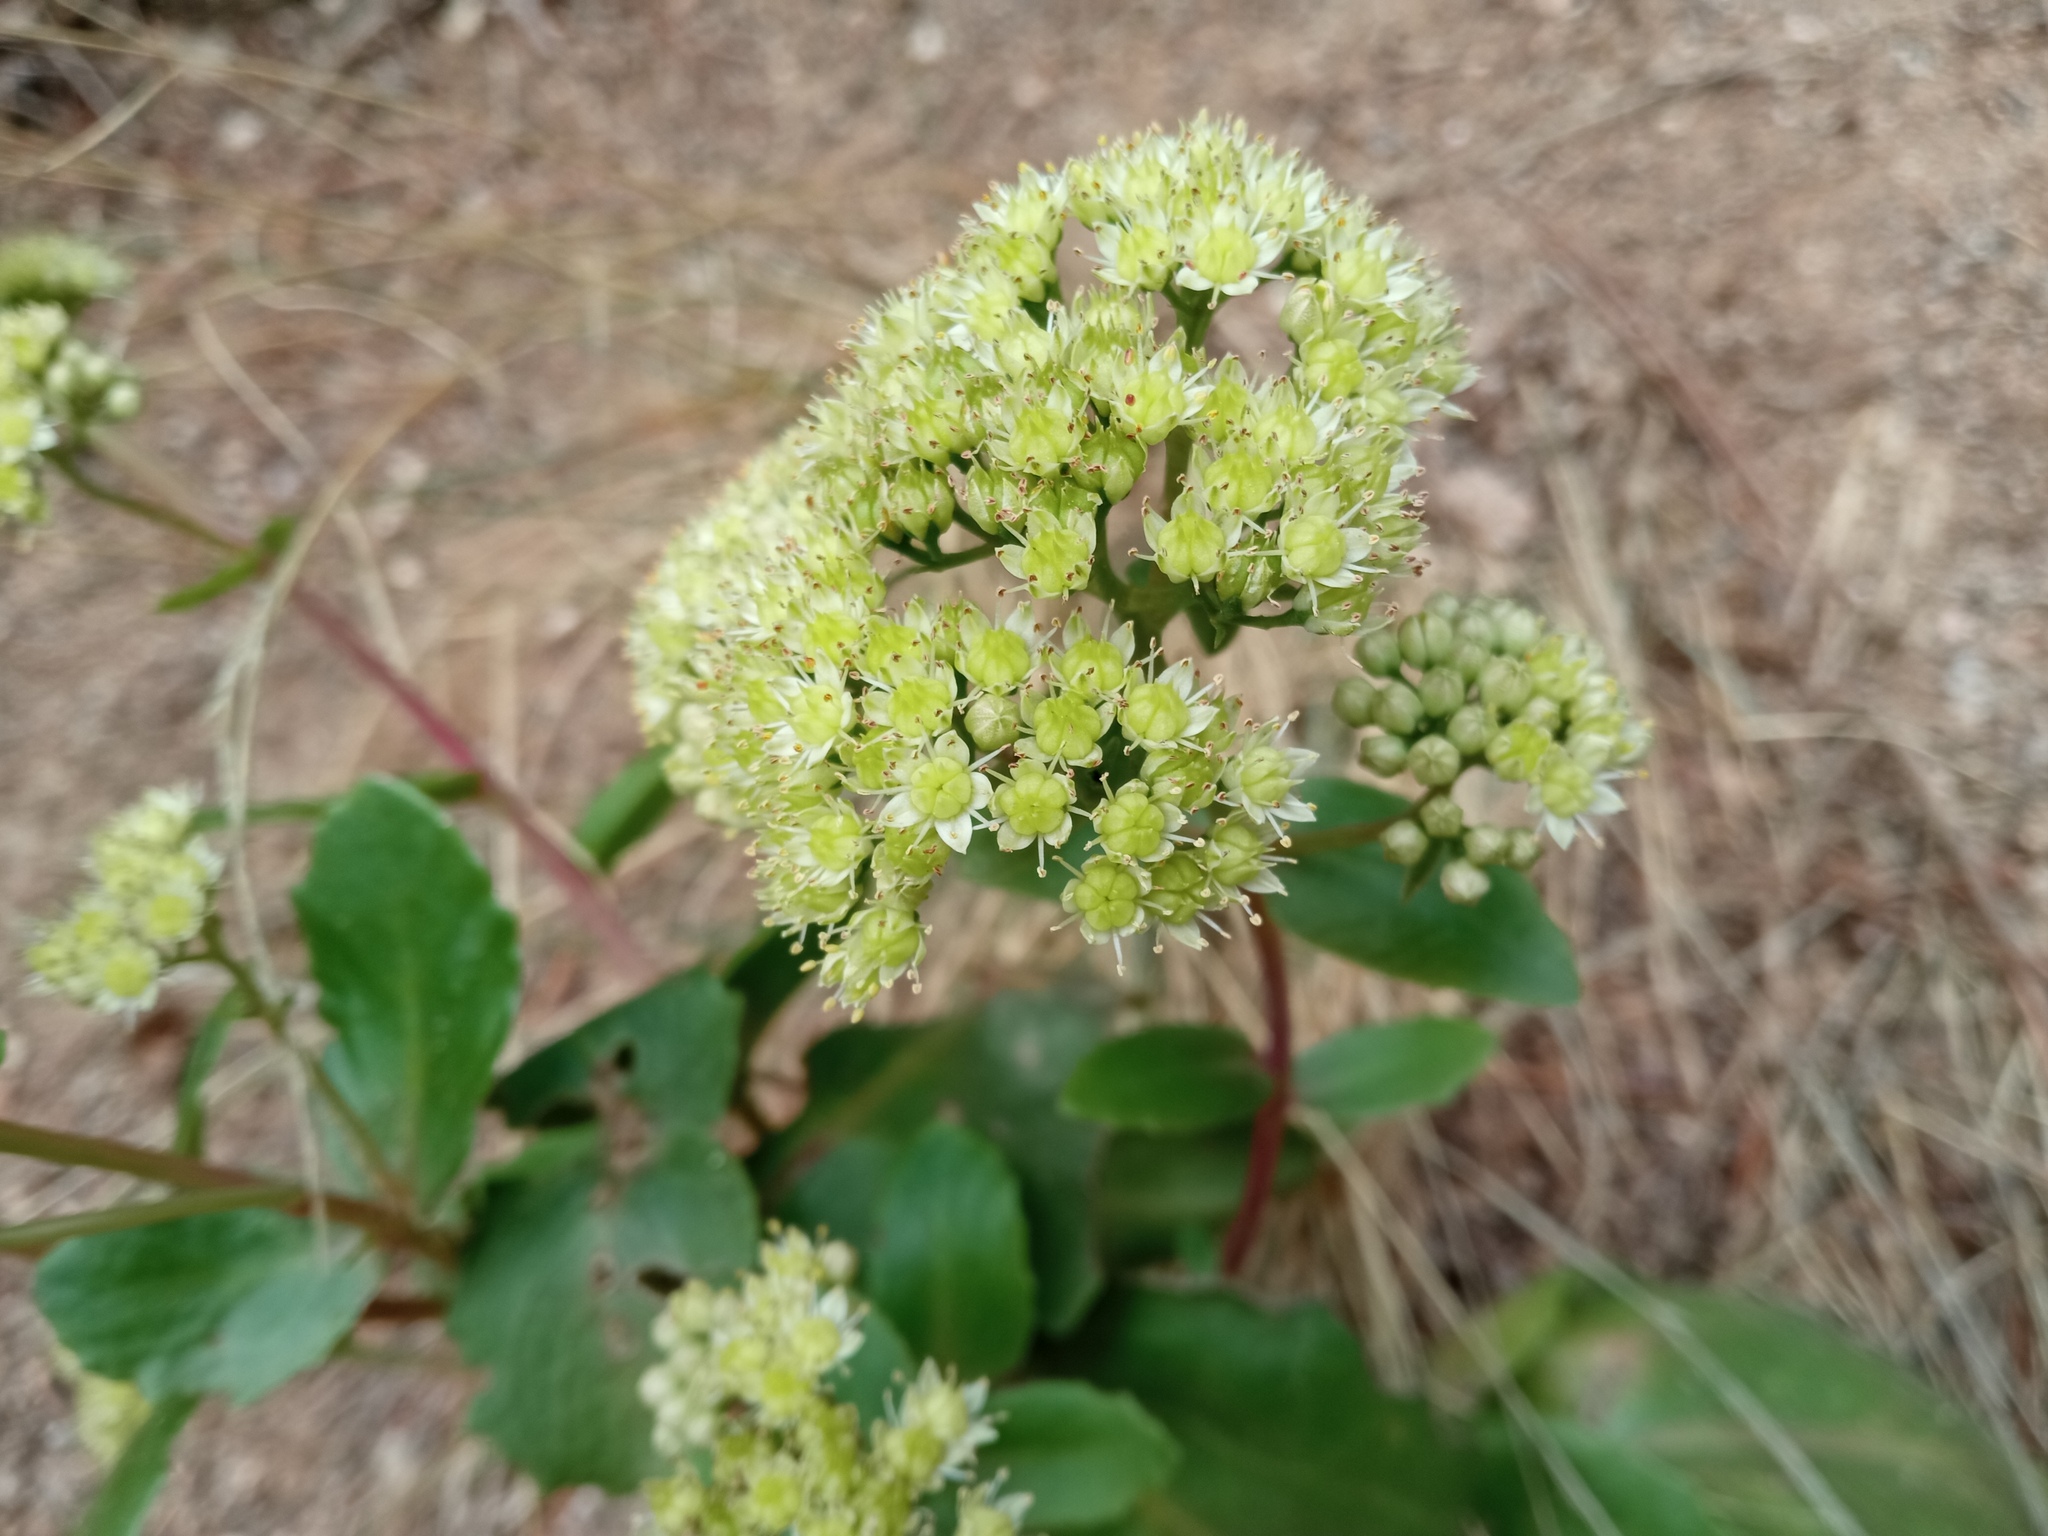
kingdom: Plantae
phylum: Tracheophyta
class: Magnoliopsida
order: Saxifragales
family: Crassulaceae
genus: Hylotelephium
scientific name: Hylotelephium maximum
